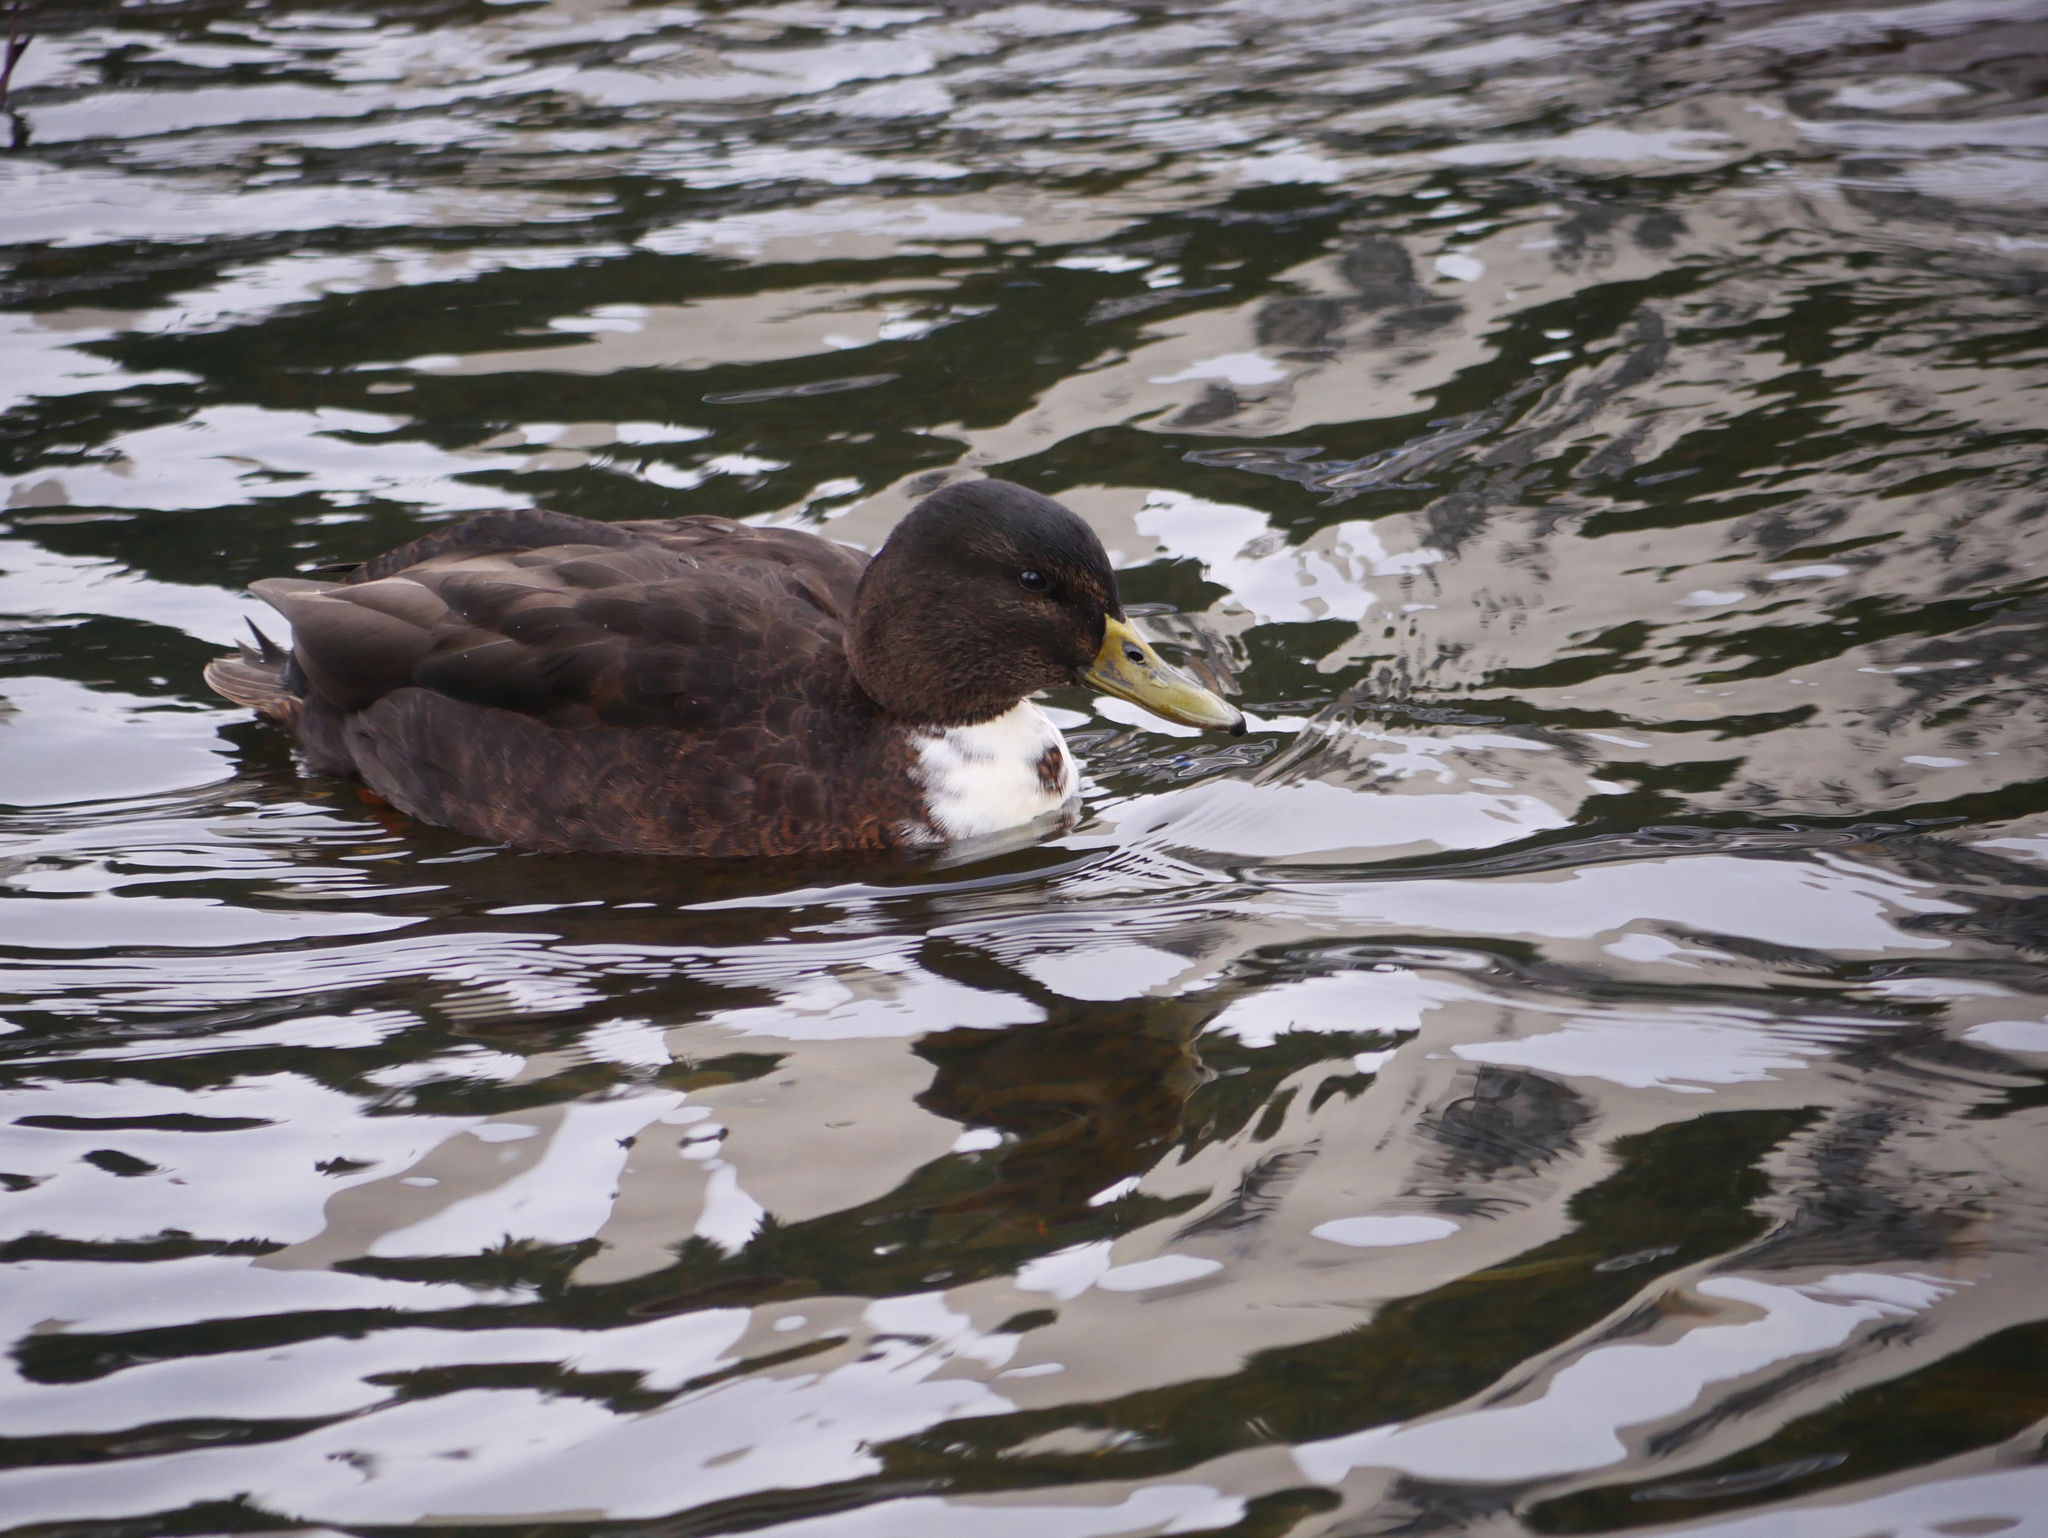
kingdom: Animalia
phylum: Chordata
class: Aves
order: Anseriformes
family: Anatidae
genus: Anas
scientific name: Anas platyrhynchos
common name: Mallard
